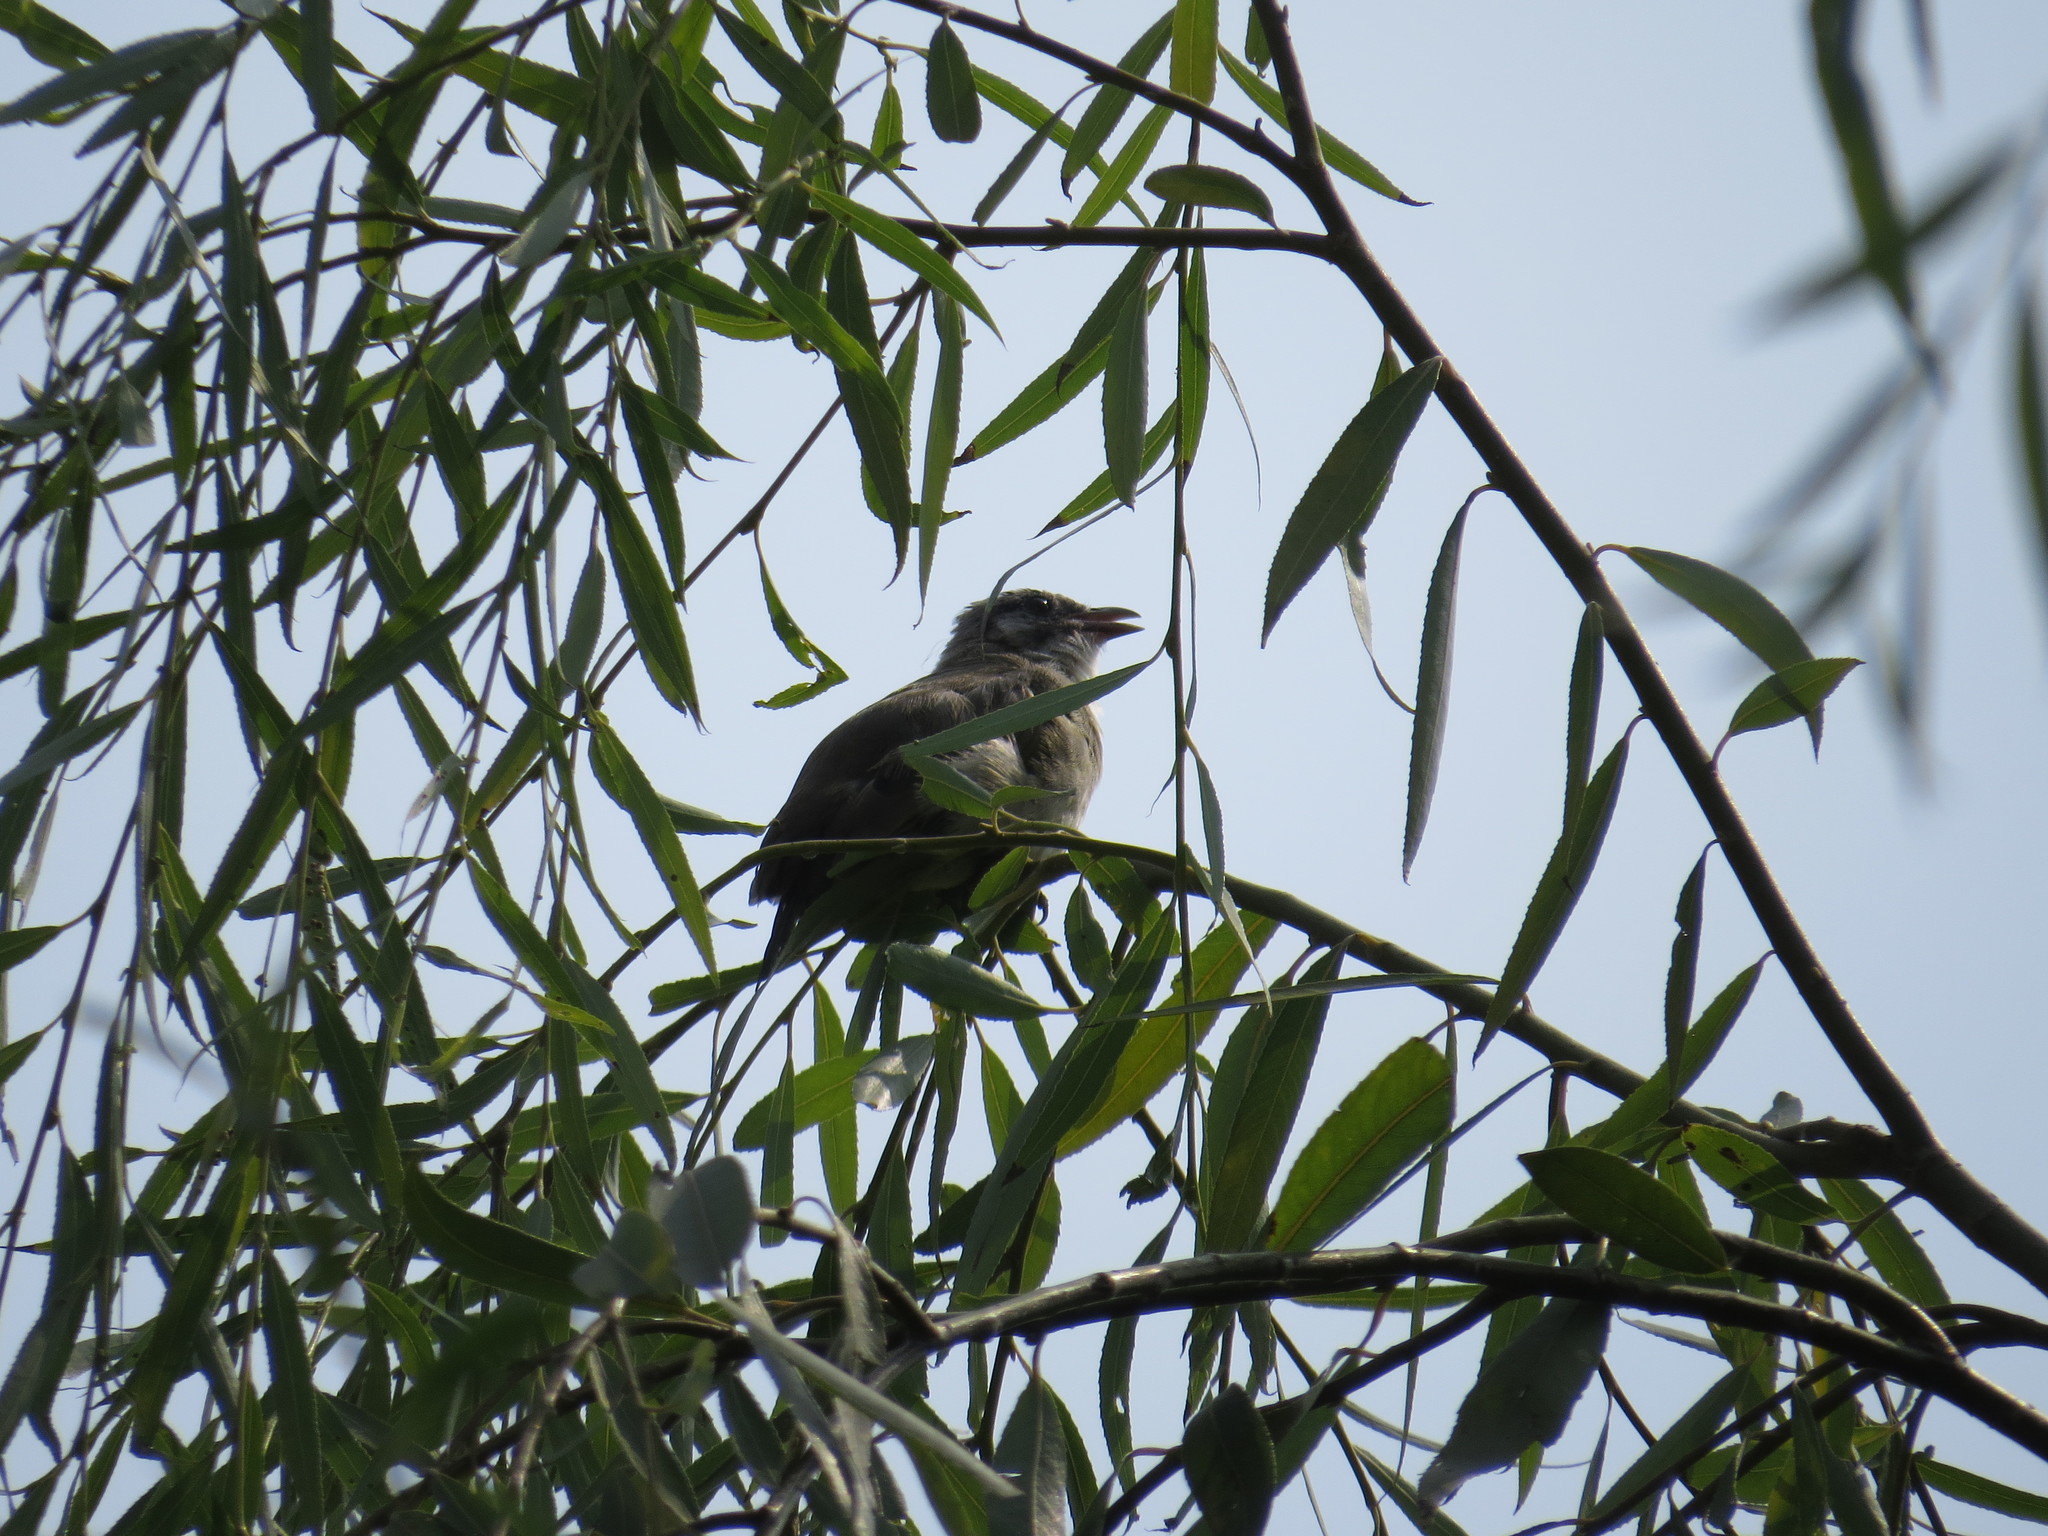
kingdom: Animalia
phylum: Chordata
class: Aves
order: Passeriformes
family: Pycnonotidae
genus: Pycnonotus
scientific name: Pycnonotus sinensis
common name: Light-vented bulbul
